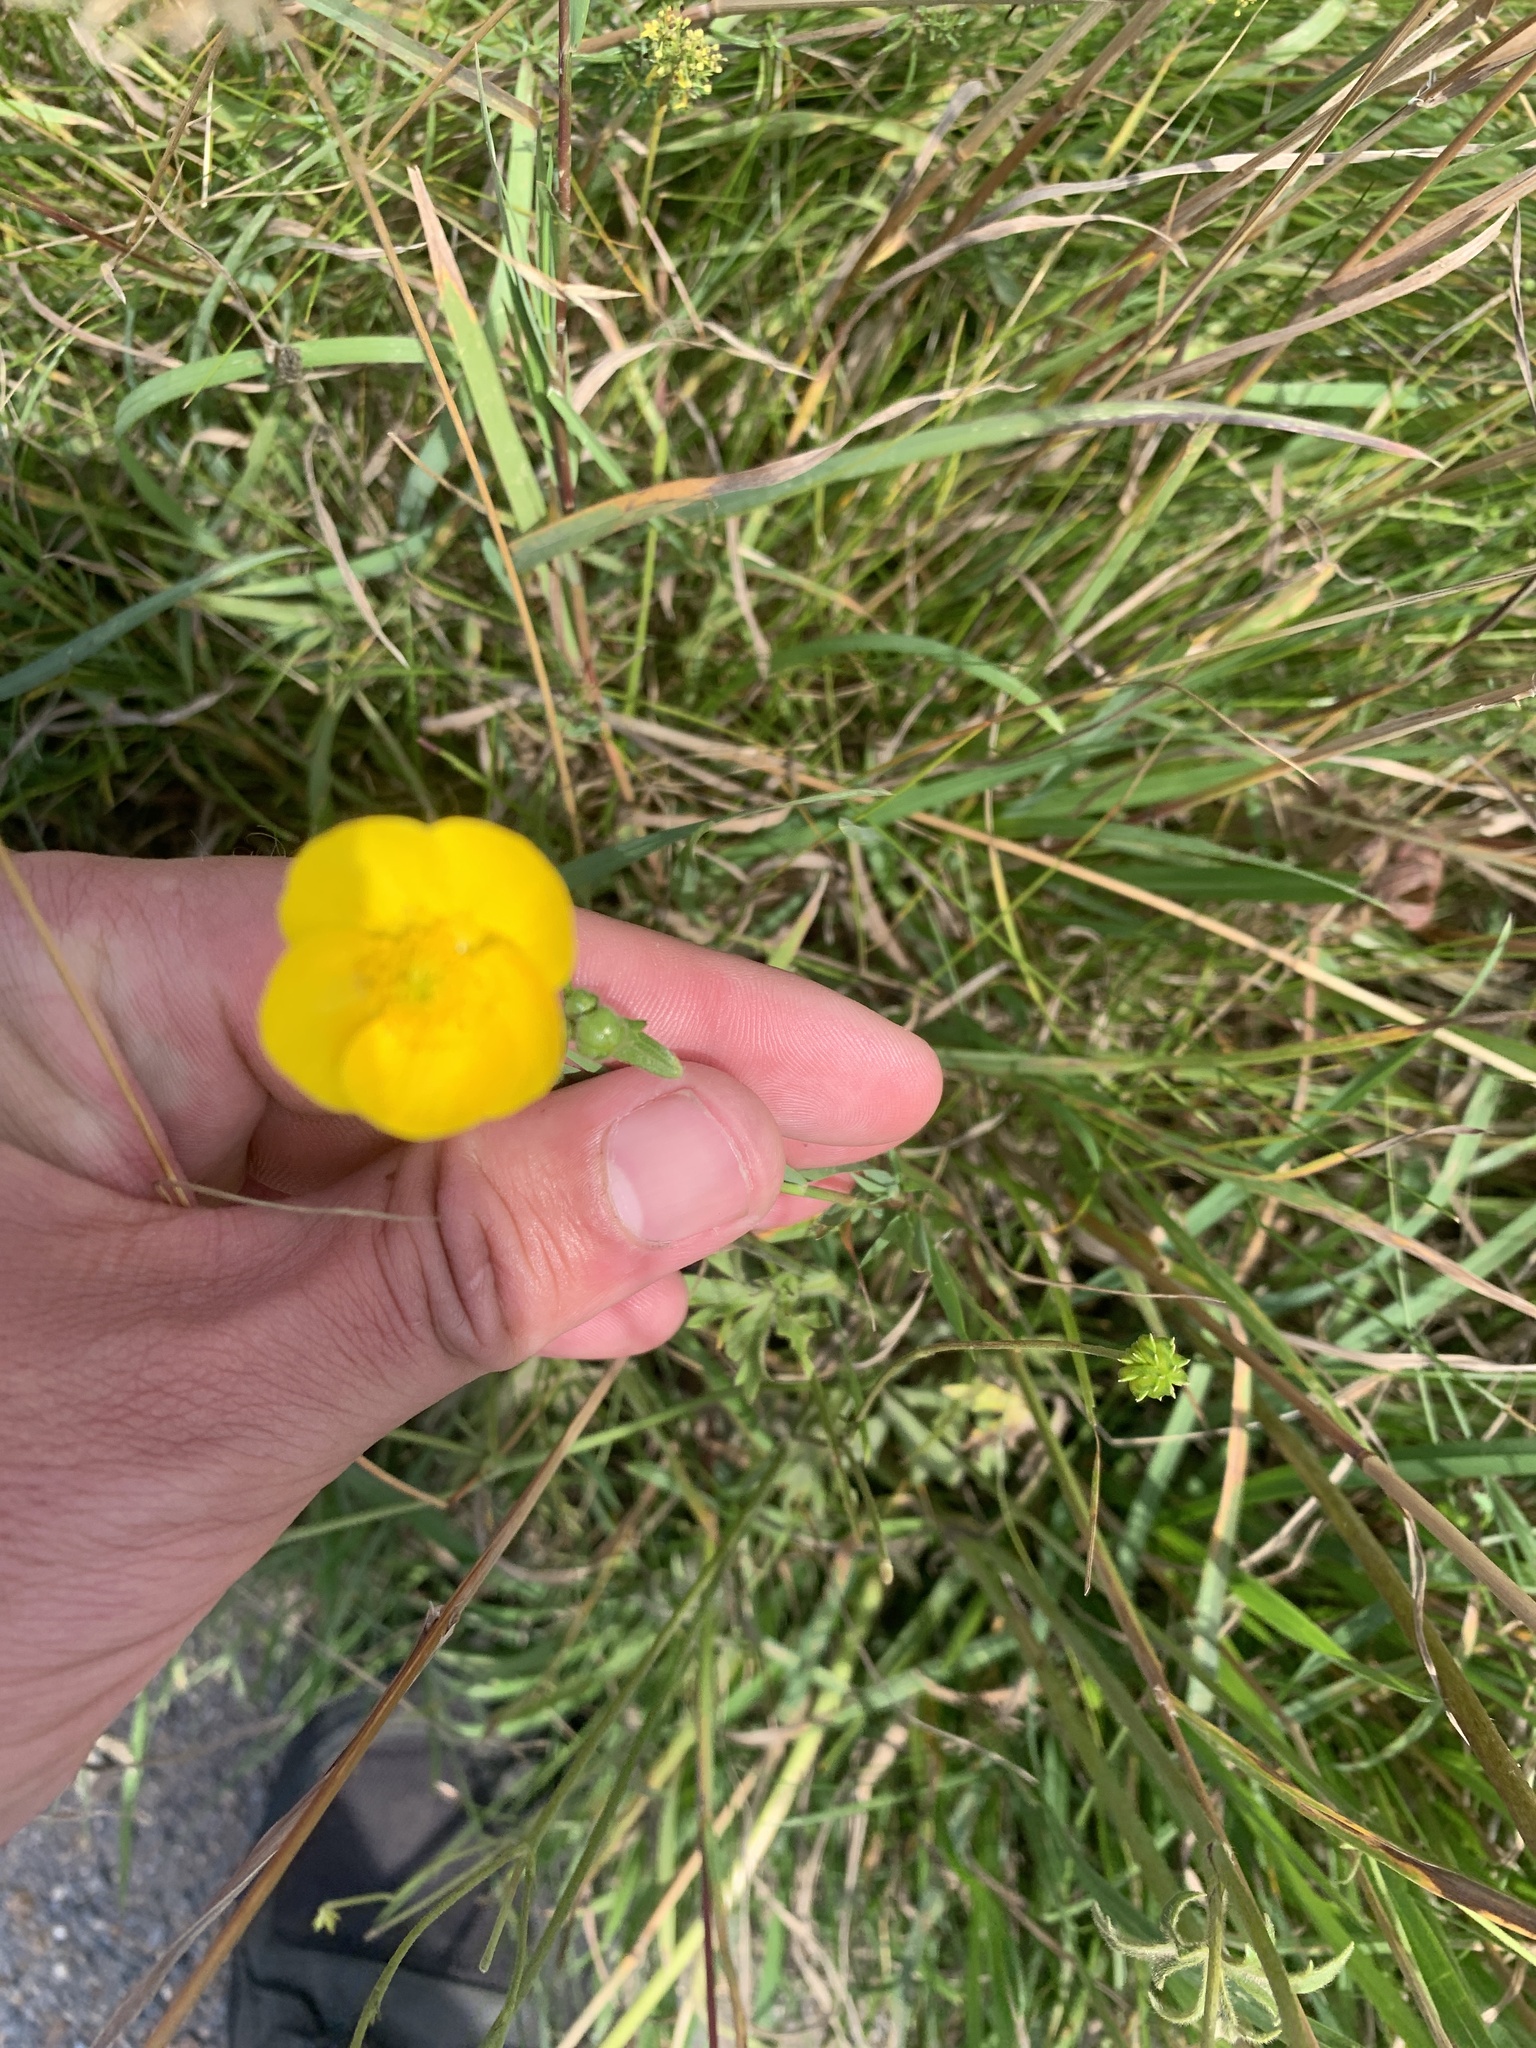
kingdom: Plantae
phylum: Tracheophyta
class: Magnoliopsida
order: Ranunculales
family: Ranunculaceae
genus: Ranunculus
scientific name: Ranunculus acris
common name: Meadow buttercup
